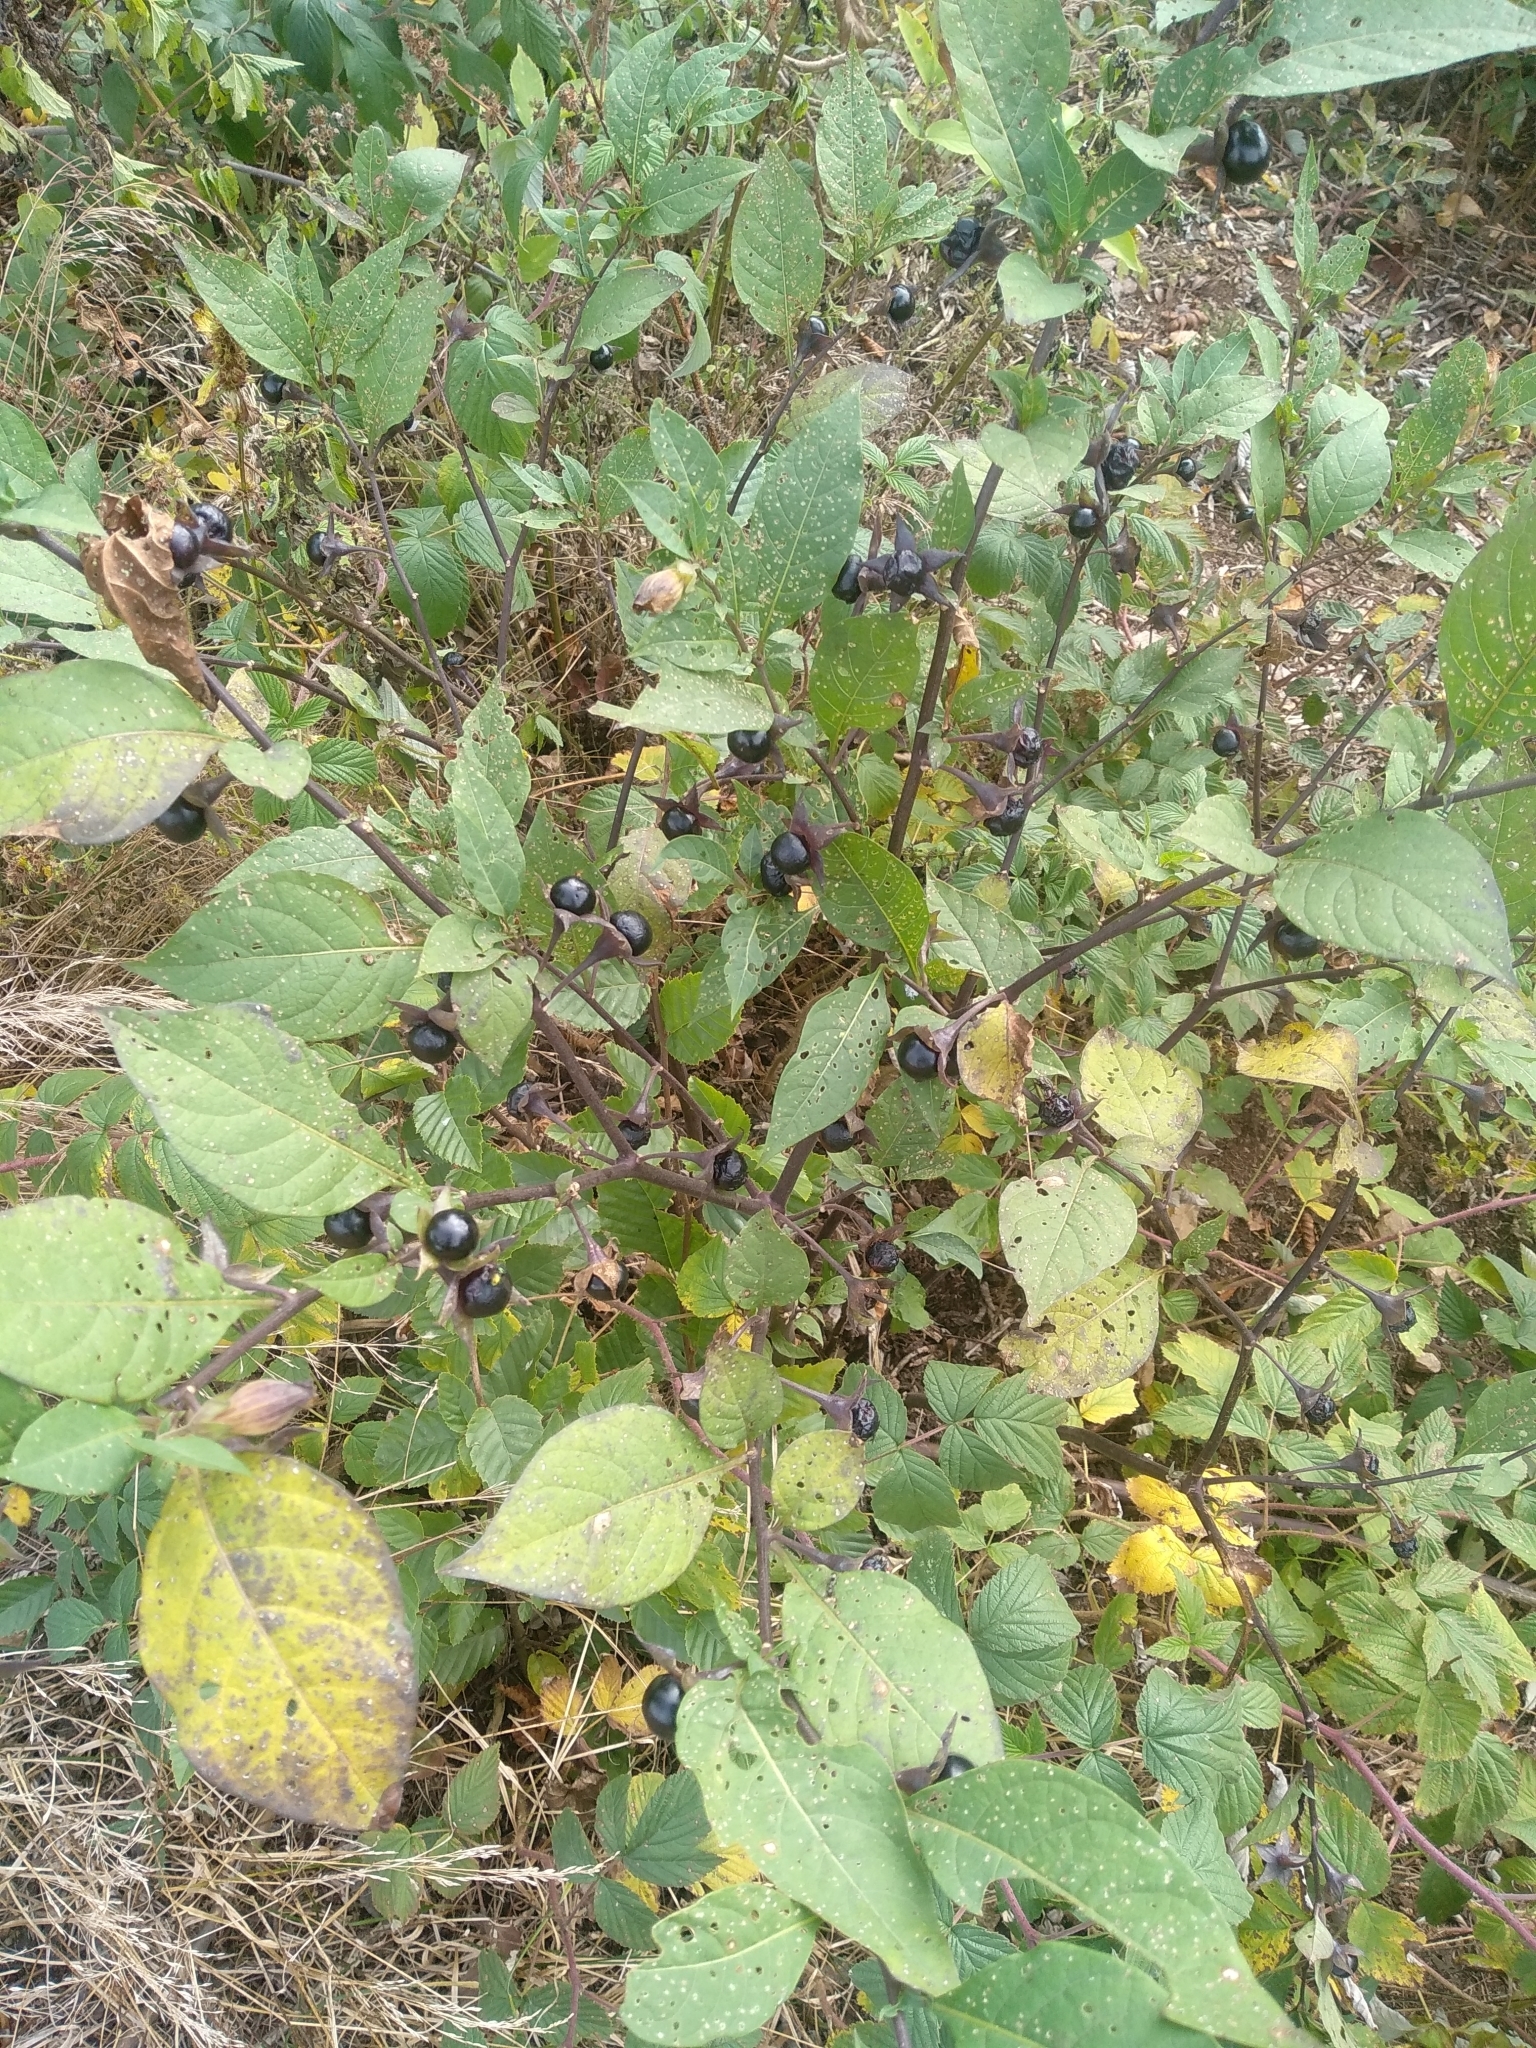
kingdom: Plantae
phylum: Tracheophyta
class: Magnoliopsida
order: Solanales
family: Solanaceae
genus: Atropa
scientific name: Atropa belladonna
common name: Deadly nightshade
